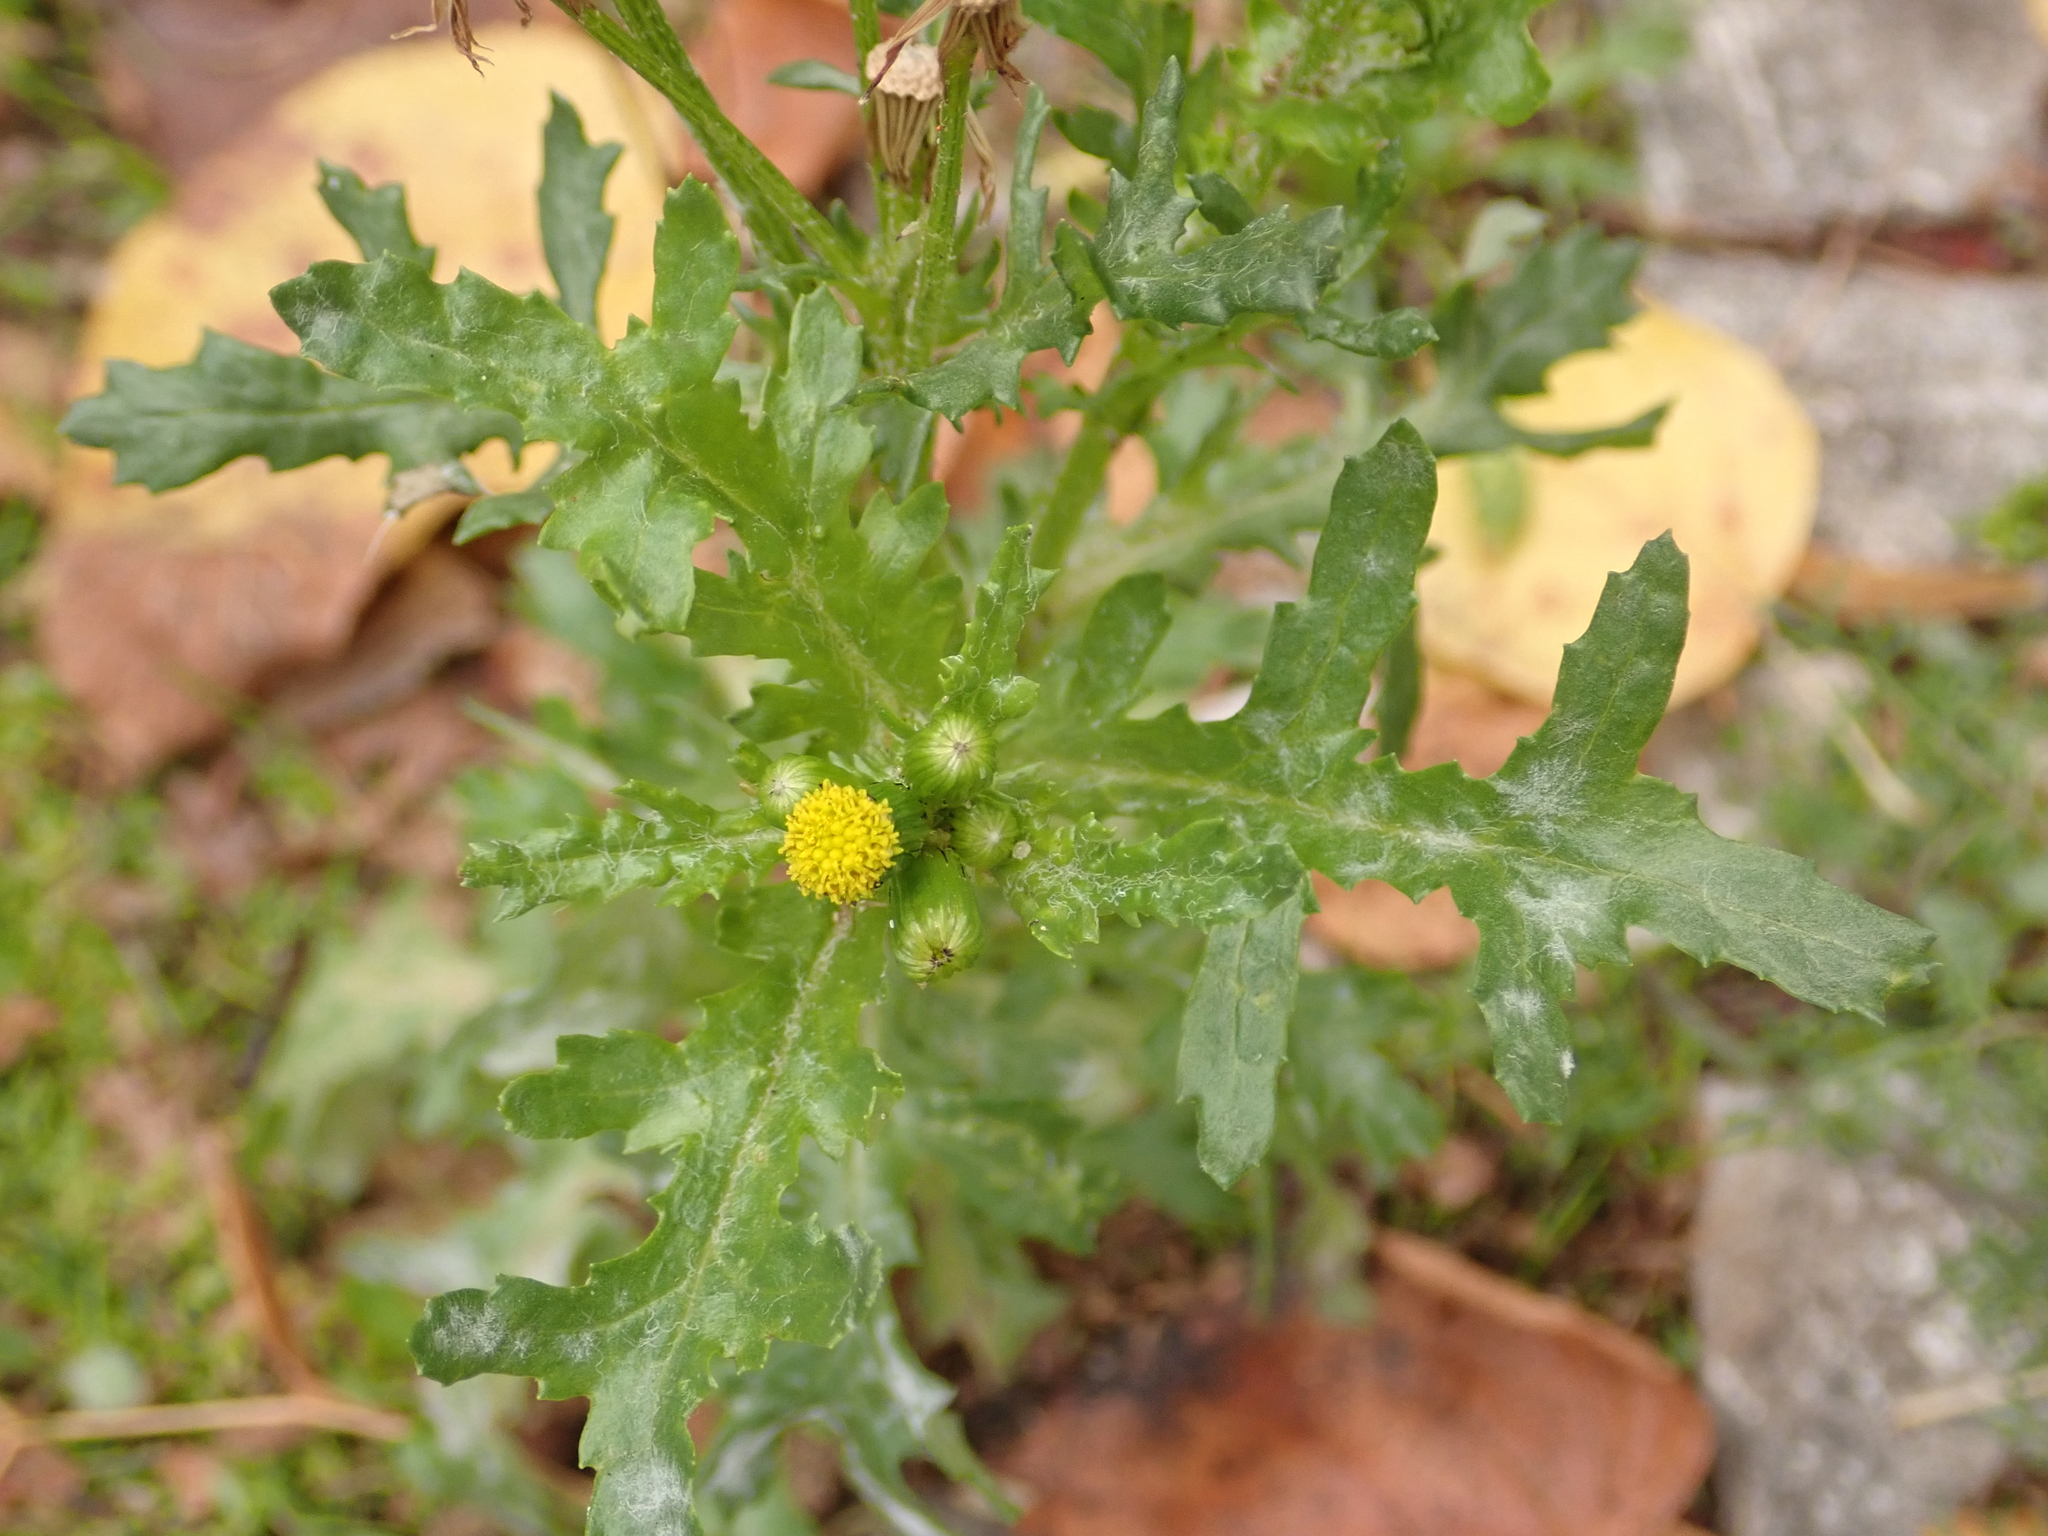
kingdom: Plantae
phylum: Tracheophyta
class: Magnoliopsida
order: Asterales
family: Asteraceae
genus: Senecio
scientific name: Senecio vulgaris
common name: Old-man-in-the-spring
